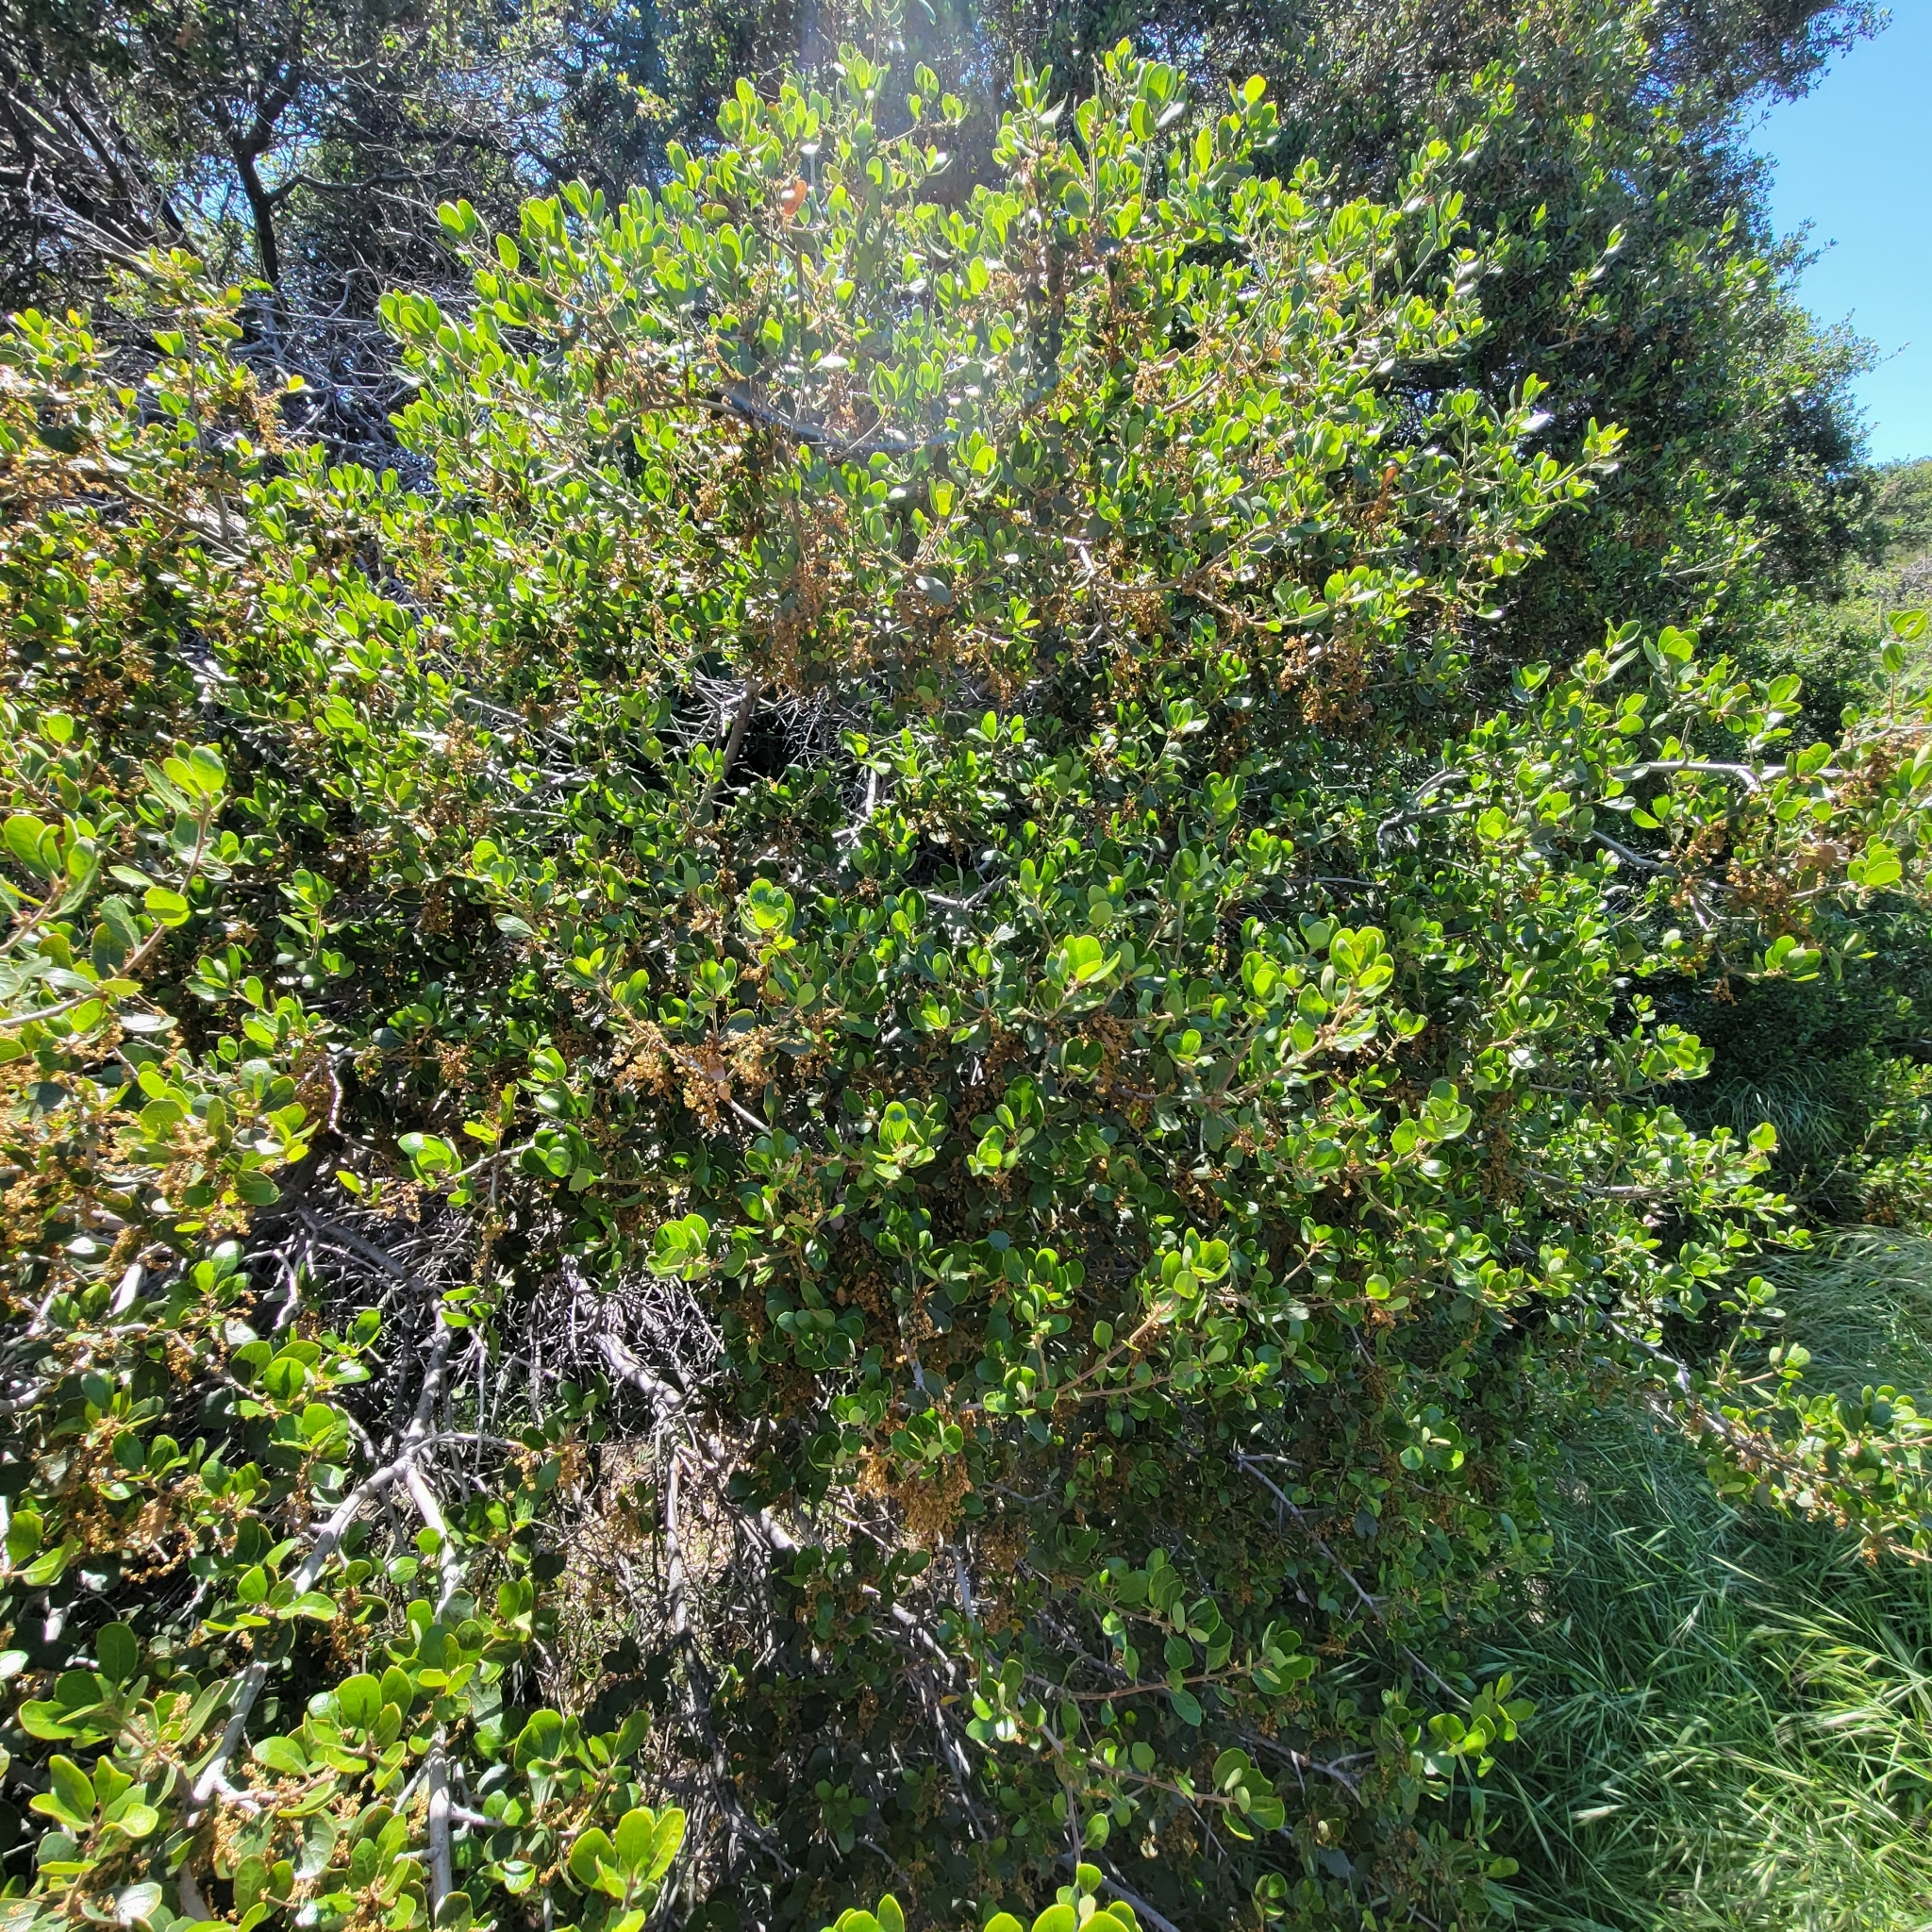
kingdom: Plantae
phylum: Tracheophyta
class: Magnoliopsida
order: Fagales
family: Fagaceae
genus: Quercus
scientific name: Quercus berberidifolia
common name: California scrub oak
